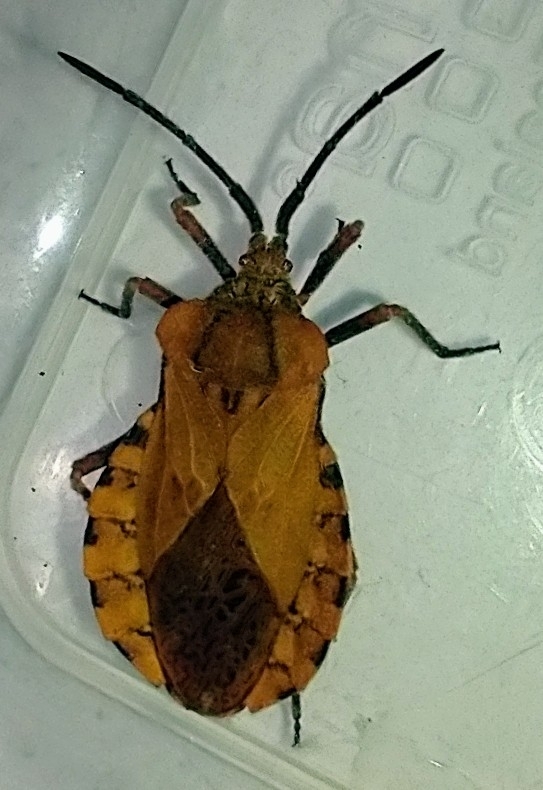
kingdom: Animalia
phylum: Arthropoda
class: Insecta
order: Hemiptera
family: Coreidae
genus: Spartocera
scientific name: Spartocera fusca
